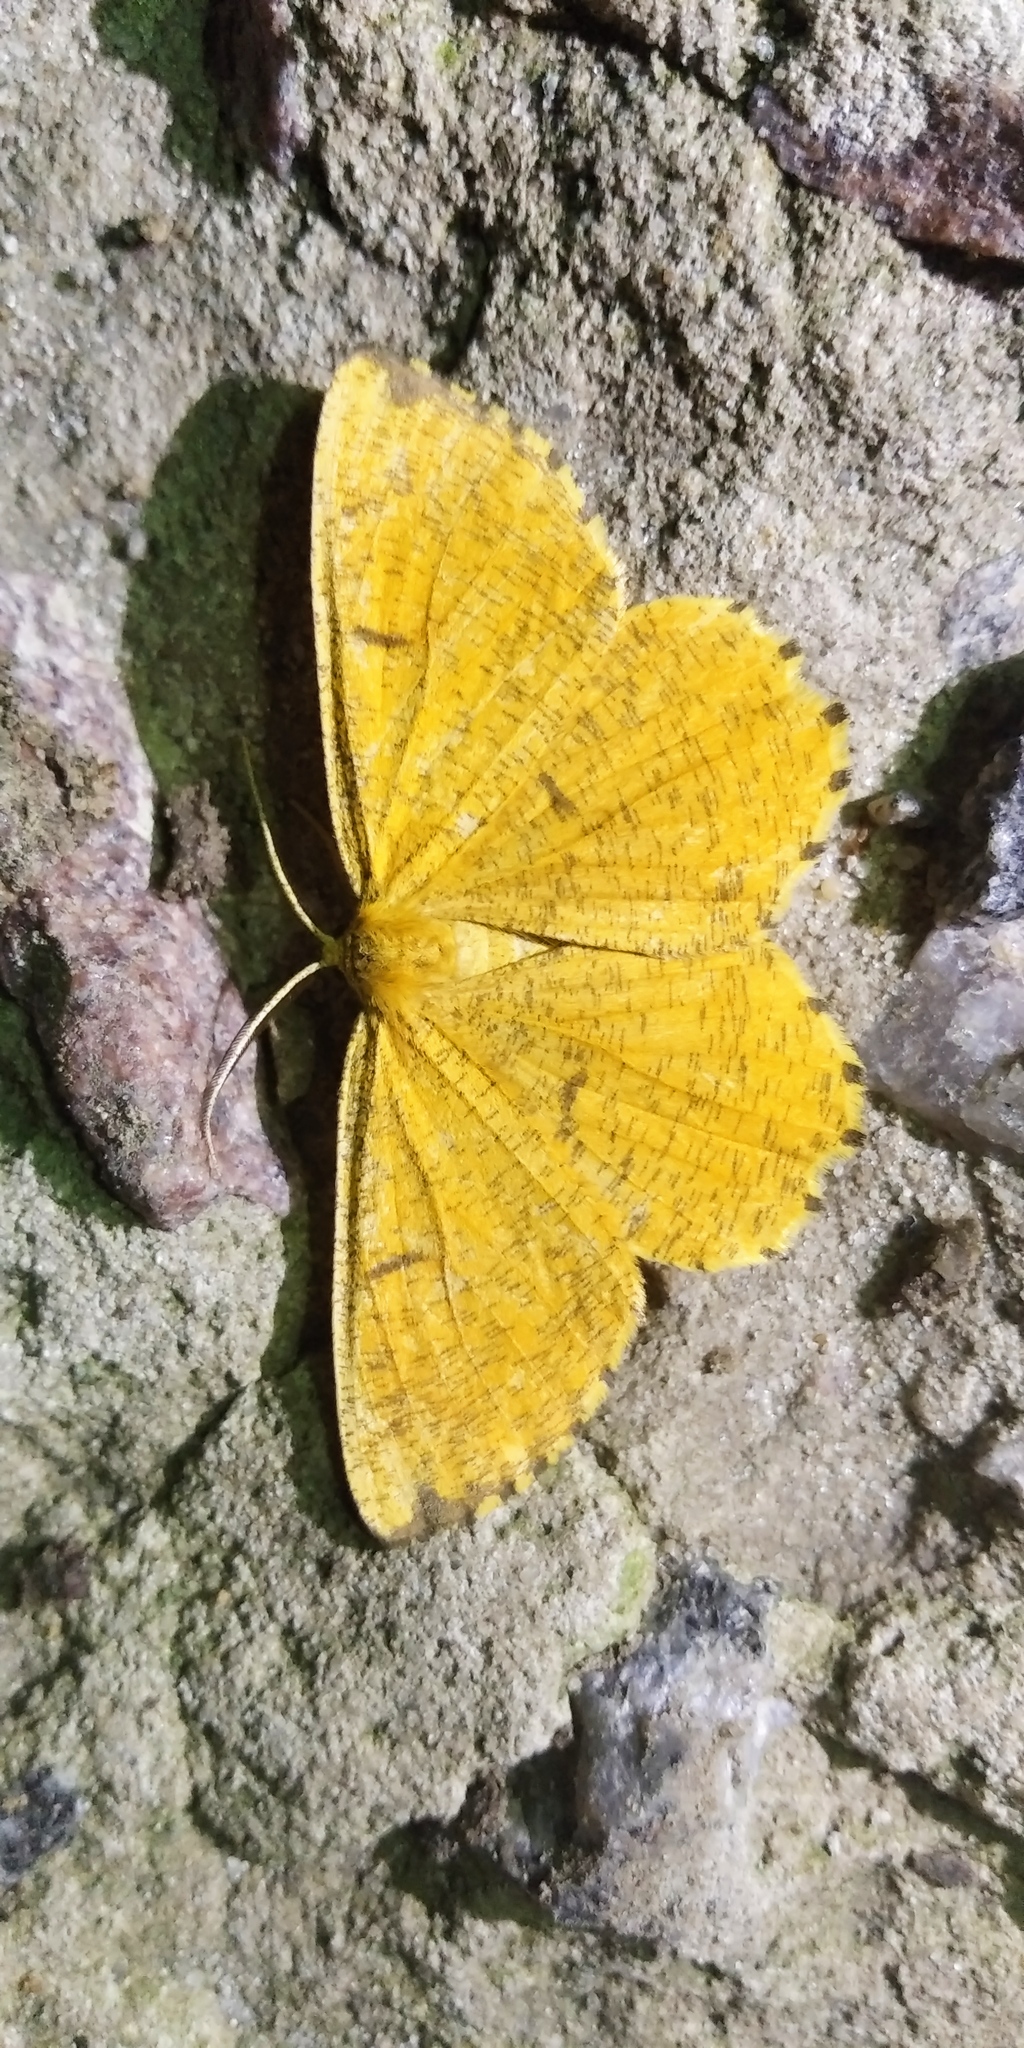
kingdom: Animalia
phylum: Arthropoda
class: Insecta
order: Lepidoptera
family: Geometridae
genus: Angerona
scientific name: Angerona prunaria
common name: Orange moth
